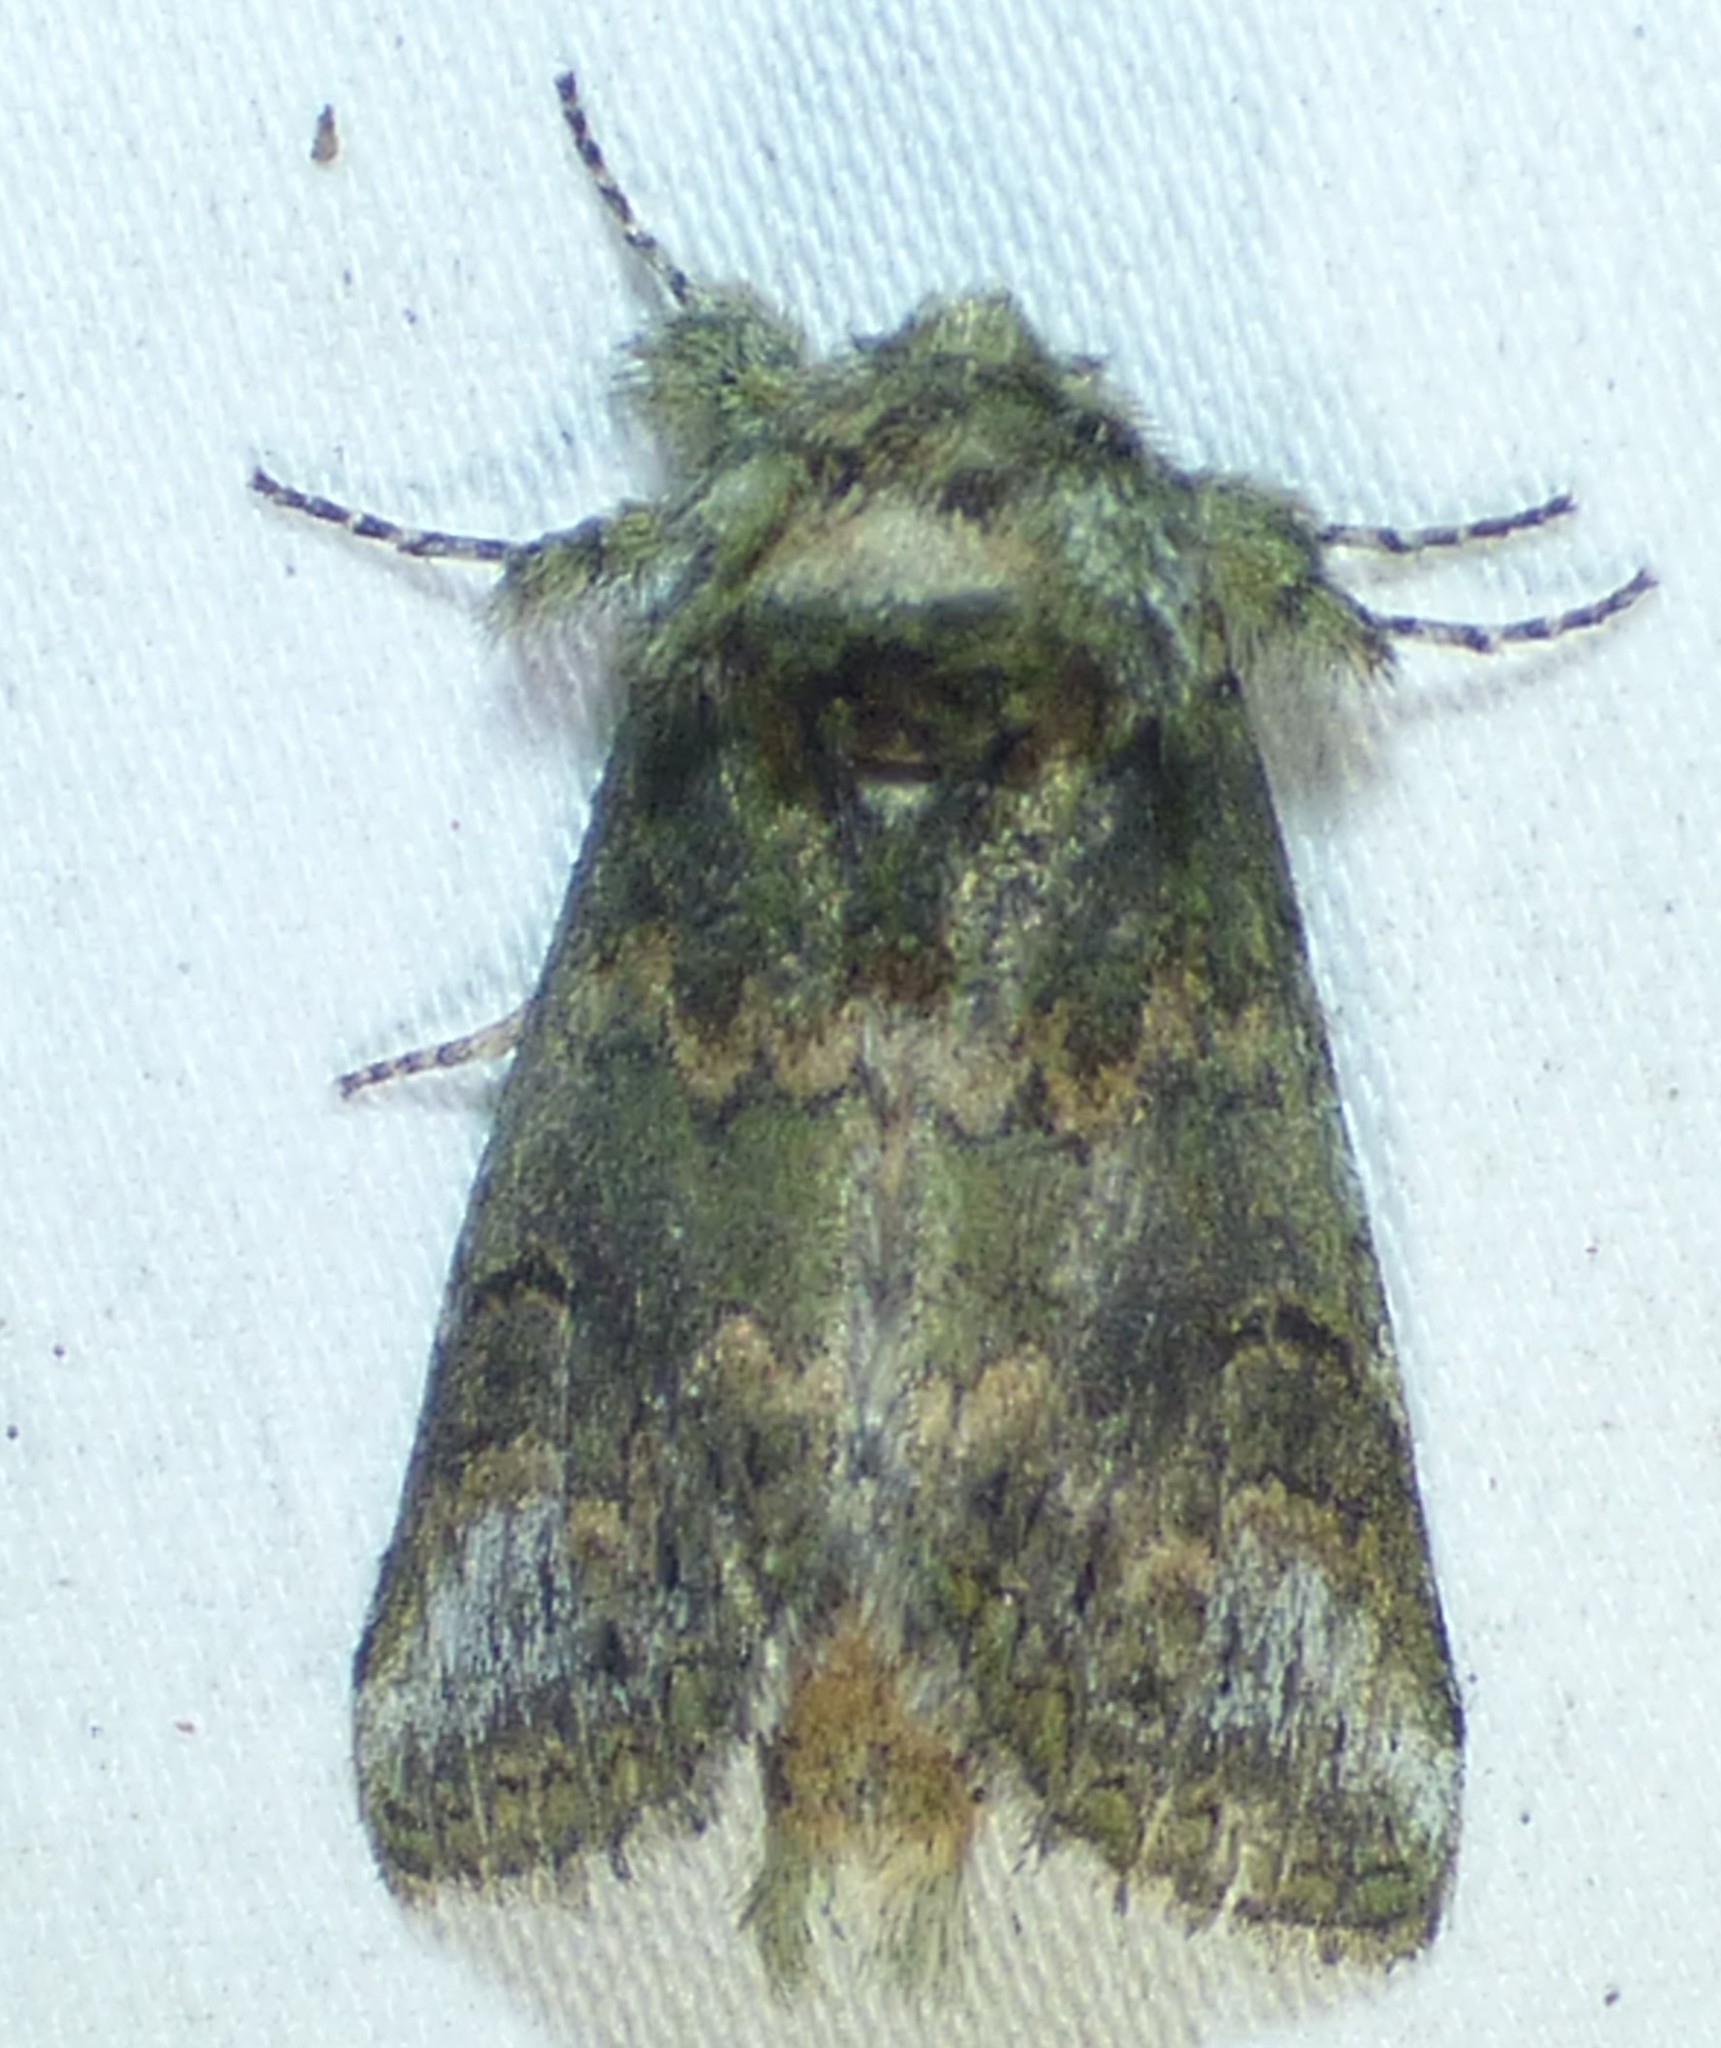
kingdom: Animalia
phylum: Arthropoda
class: Insecta
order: Lepidoptera
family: Notodontidae
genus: Disphragis
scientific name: Disphragis Cecrita biundata
